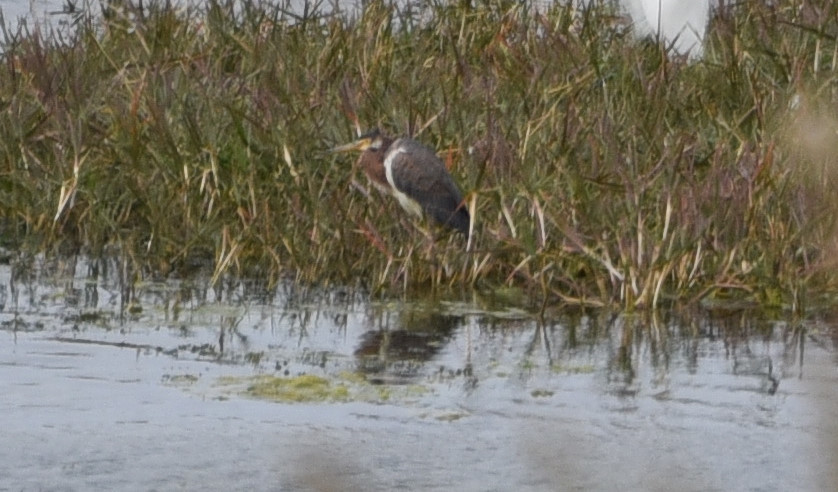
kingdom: Animalia
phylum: Chordata
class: Aves
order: Pelecaniformes
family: Ardeidae
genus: Egretta
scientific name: Egretta tricolor
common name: Tricolored heron
